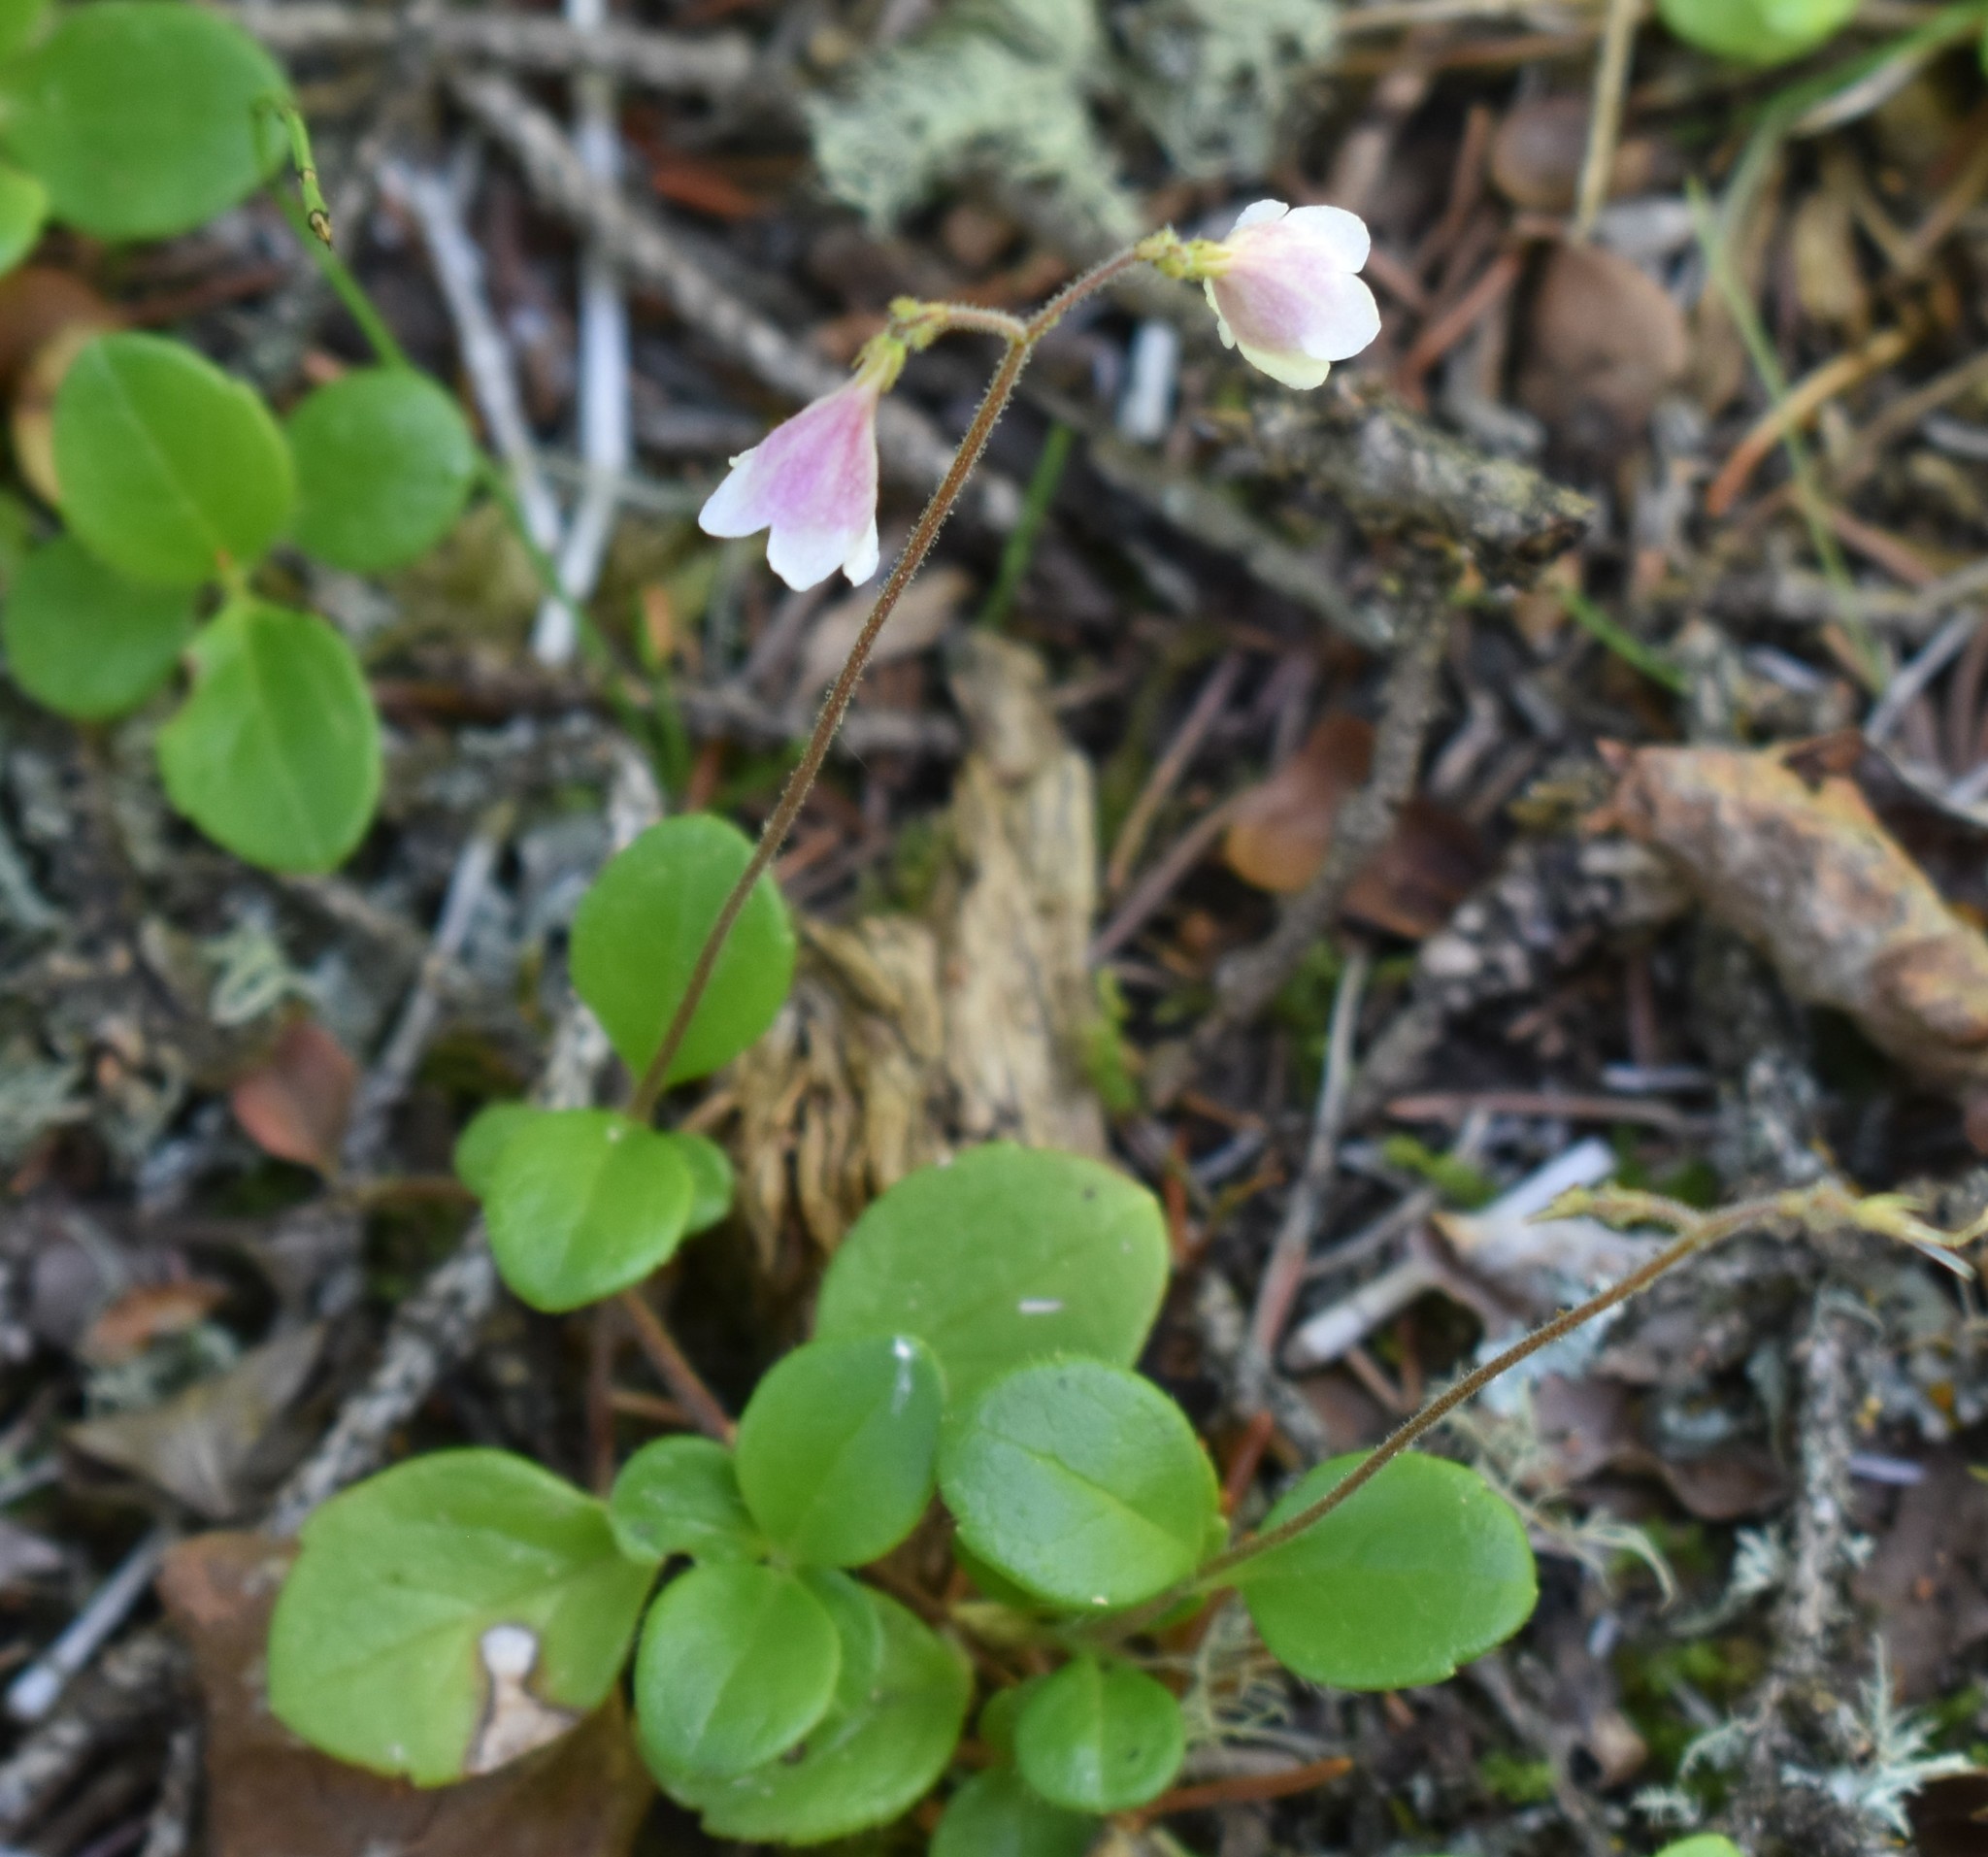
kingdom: Plantae
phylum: Tracheophyta
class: Magnoliopsida
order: Dipsacales
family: Caprifoliaceae
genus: Linnaea
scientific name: Linnaea borealis
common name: Twinflower
